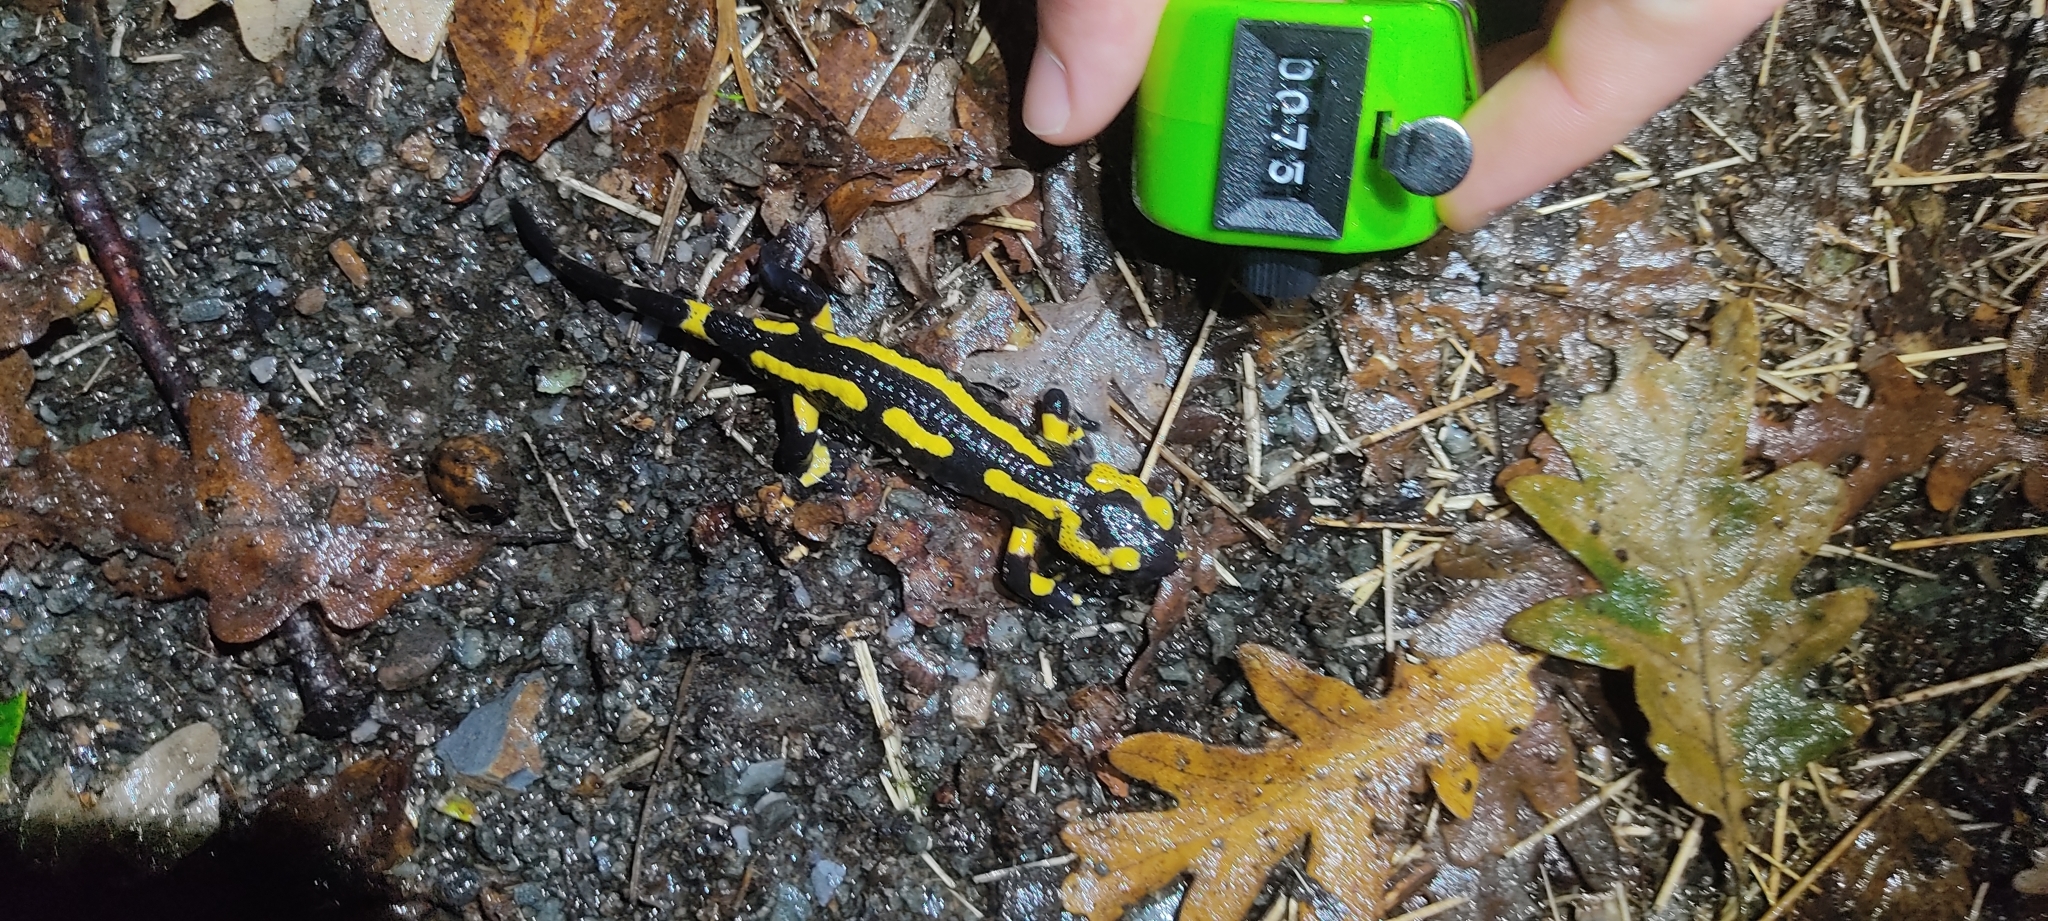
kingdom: Animalia
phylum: Chordata
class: Amphibia
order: Caudata
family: Salamandridae
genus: Salamandra
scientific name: Salamandra salamandra
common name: Fire salamander
